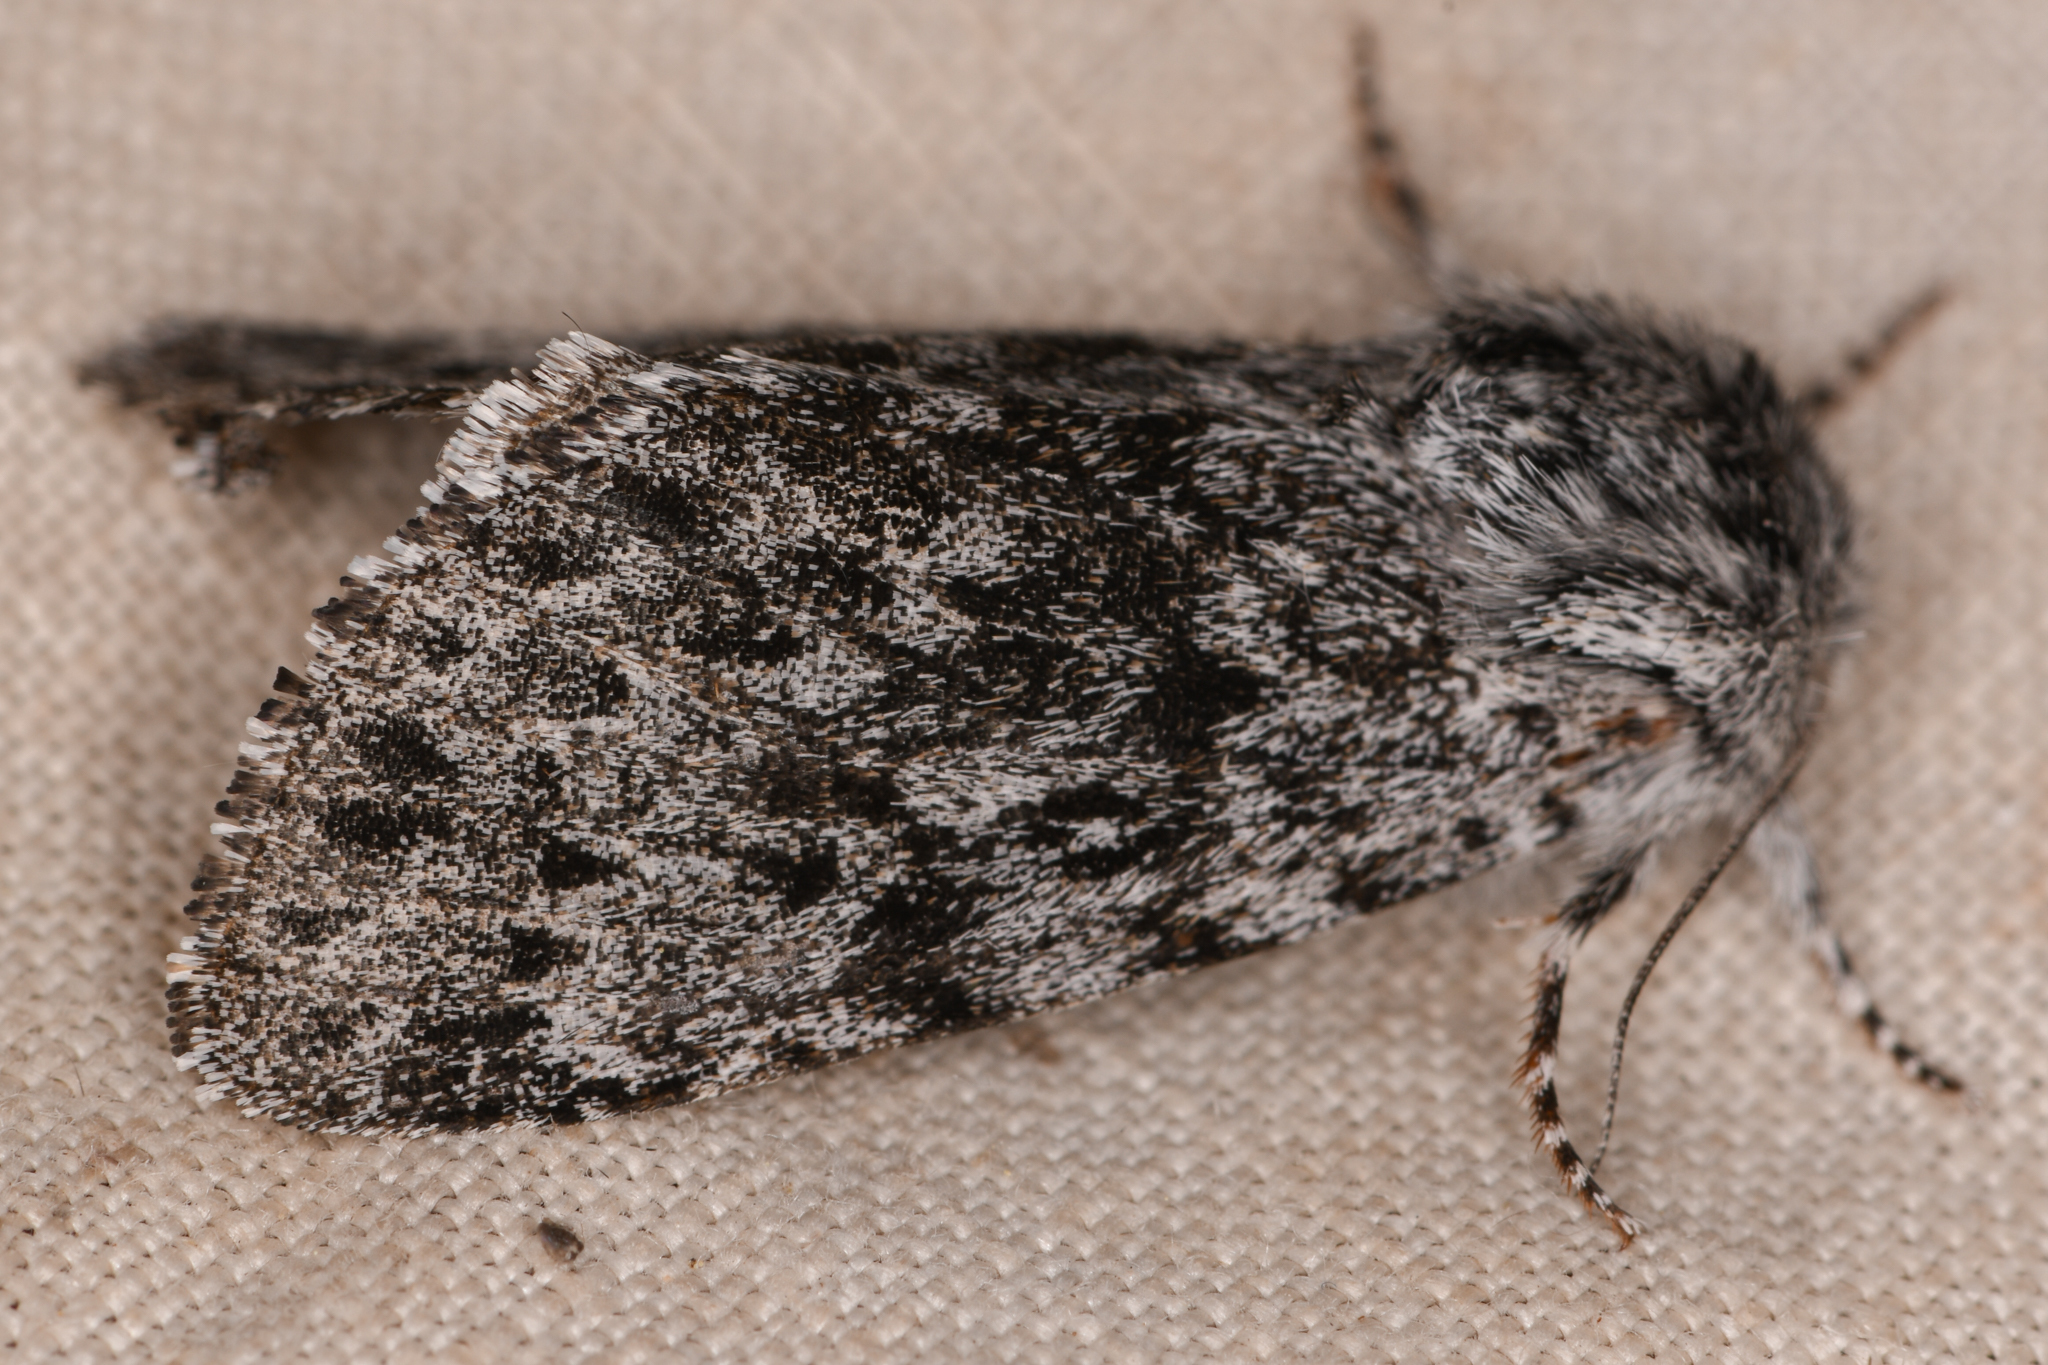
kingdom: Animalia
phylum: Arthropoda
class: Insecta
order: Lepidoptera
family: Noctuidae
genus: Acronicta
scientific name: Acronicta lupini
